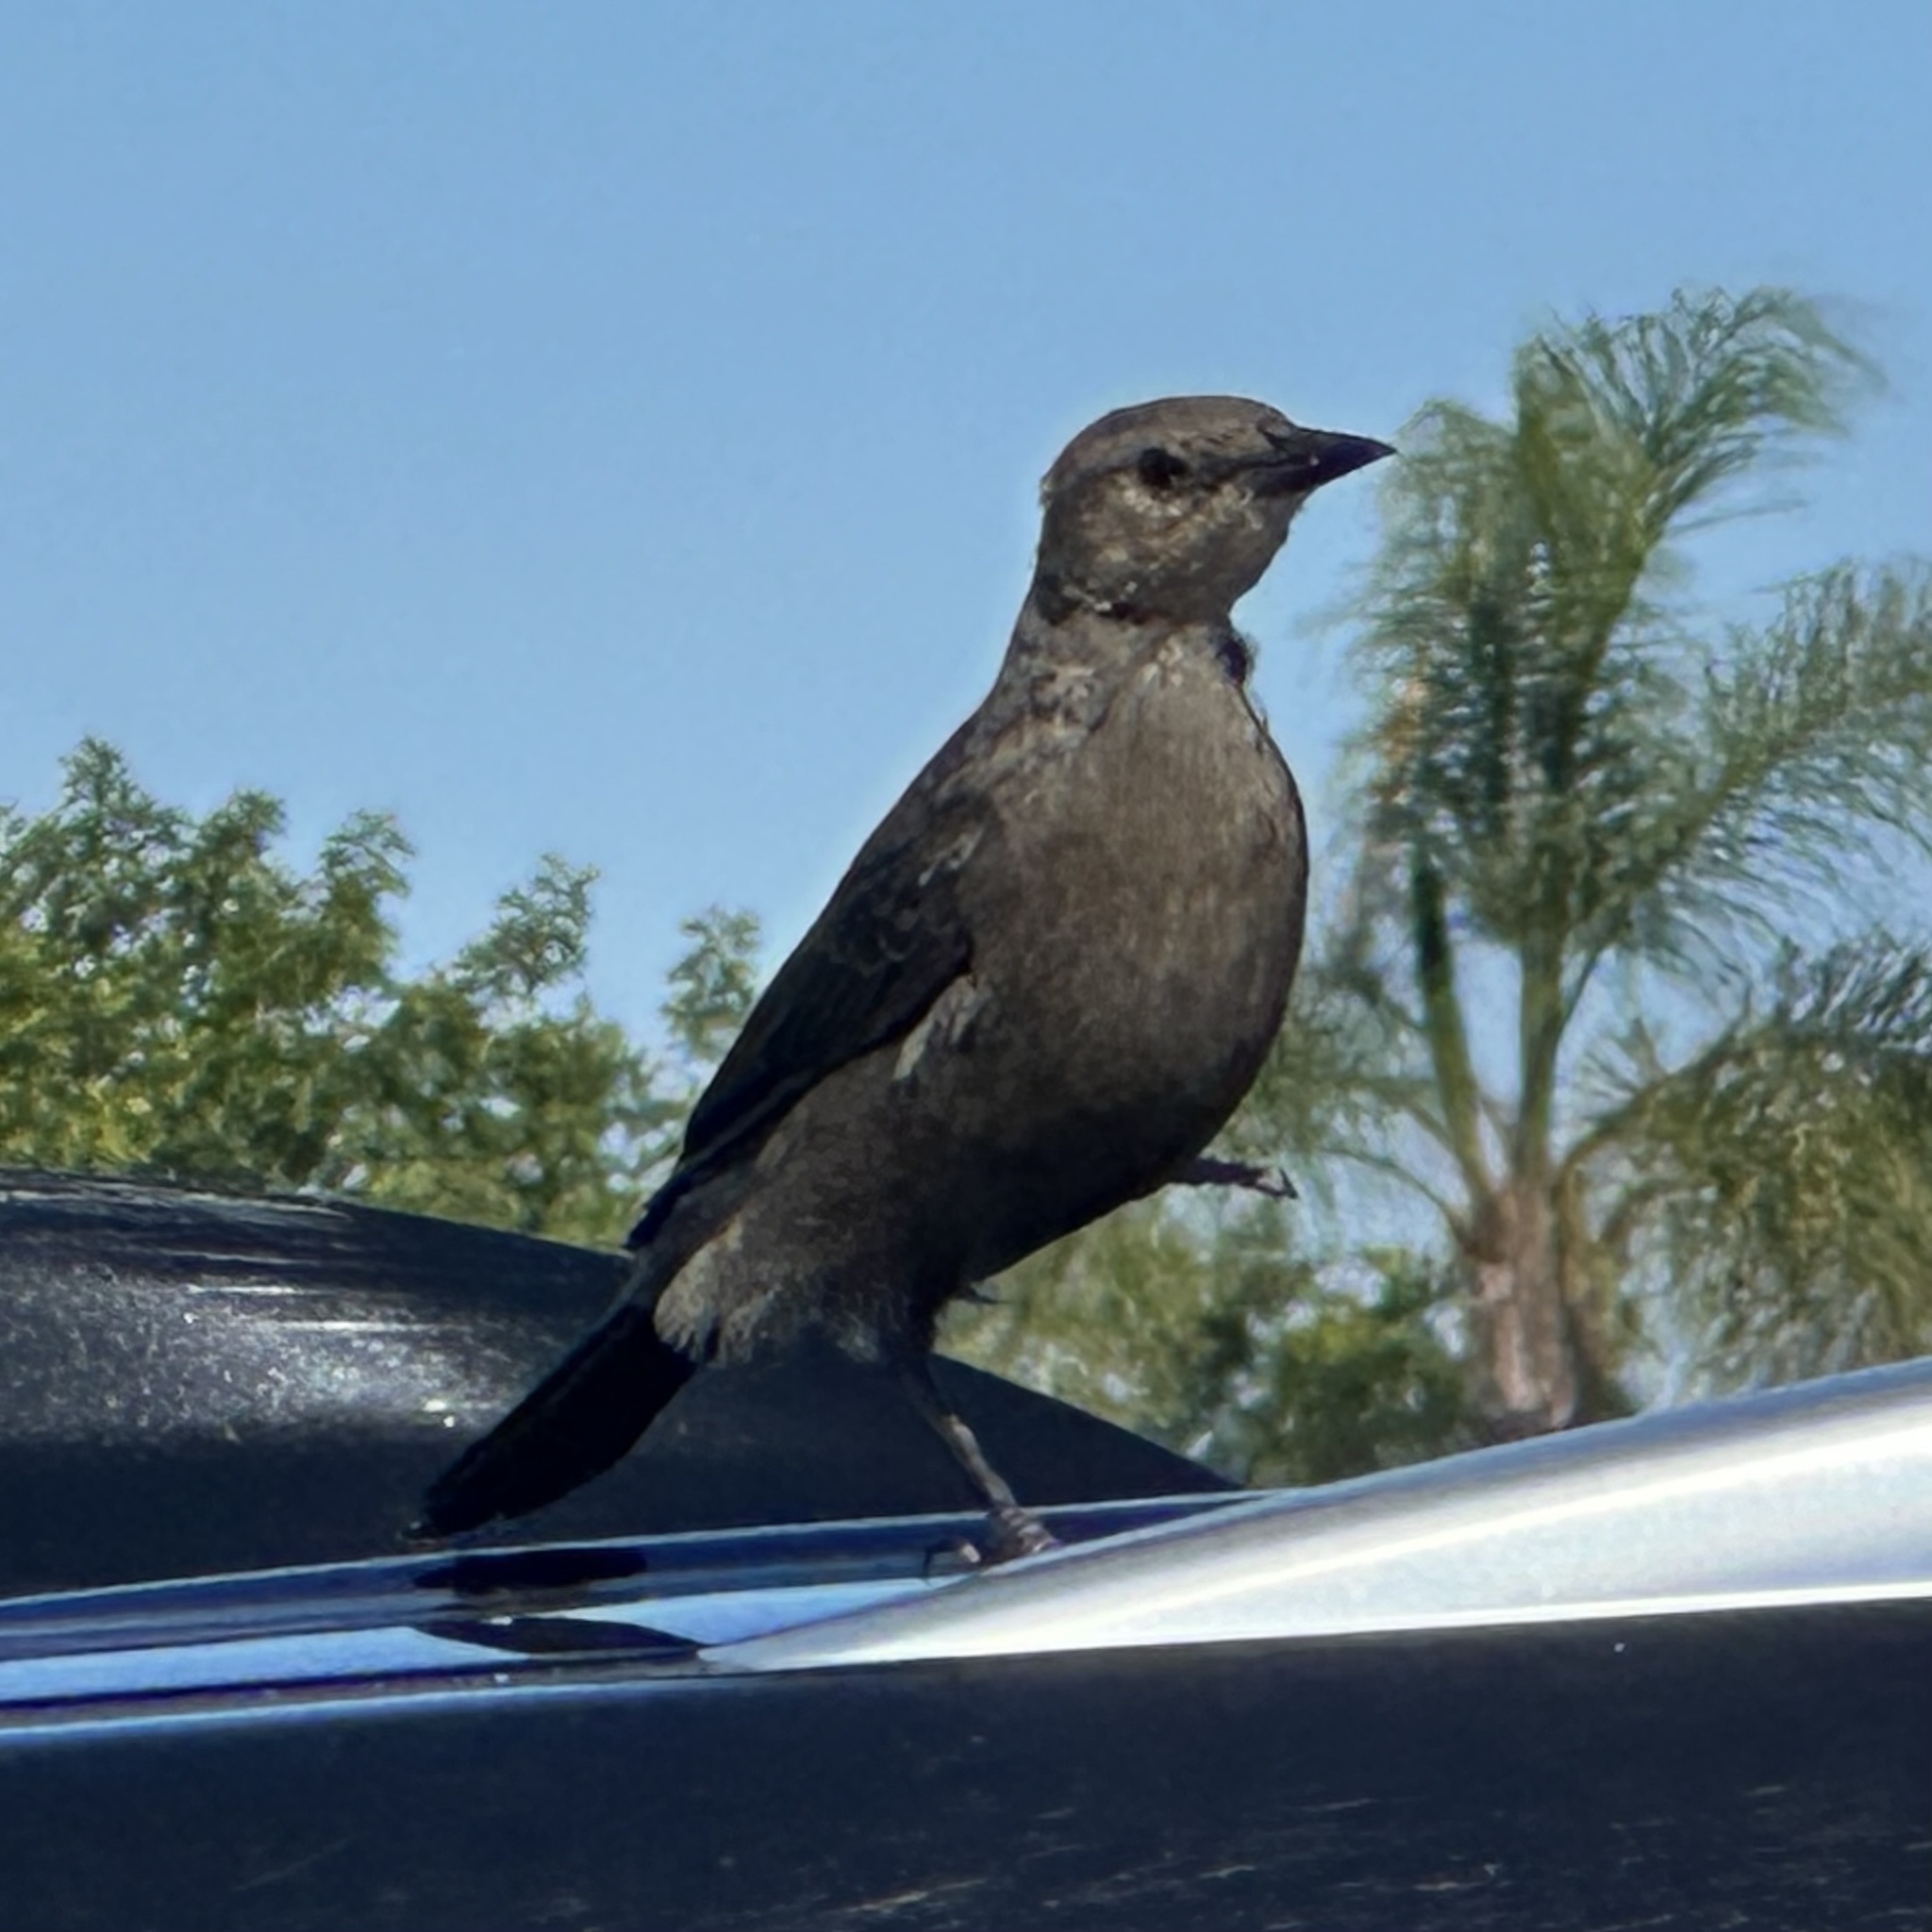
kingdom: Animalia
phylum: Chordata
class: Aves
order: Passeriformes
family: Icteridae
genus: Euphagus
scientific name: Euphagus cyanocephalus
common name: Brewer's blackbird
